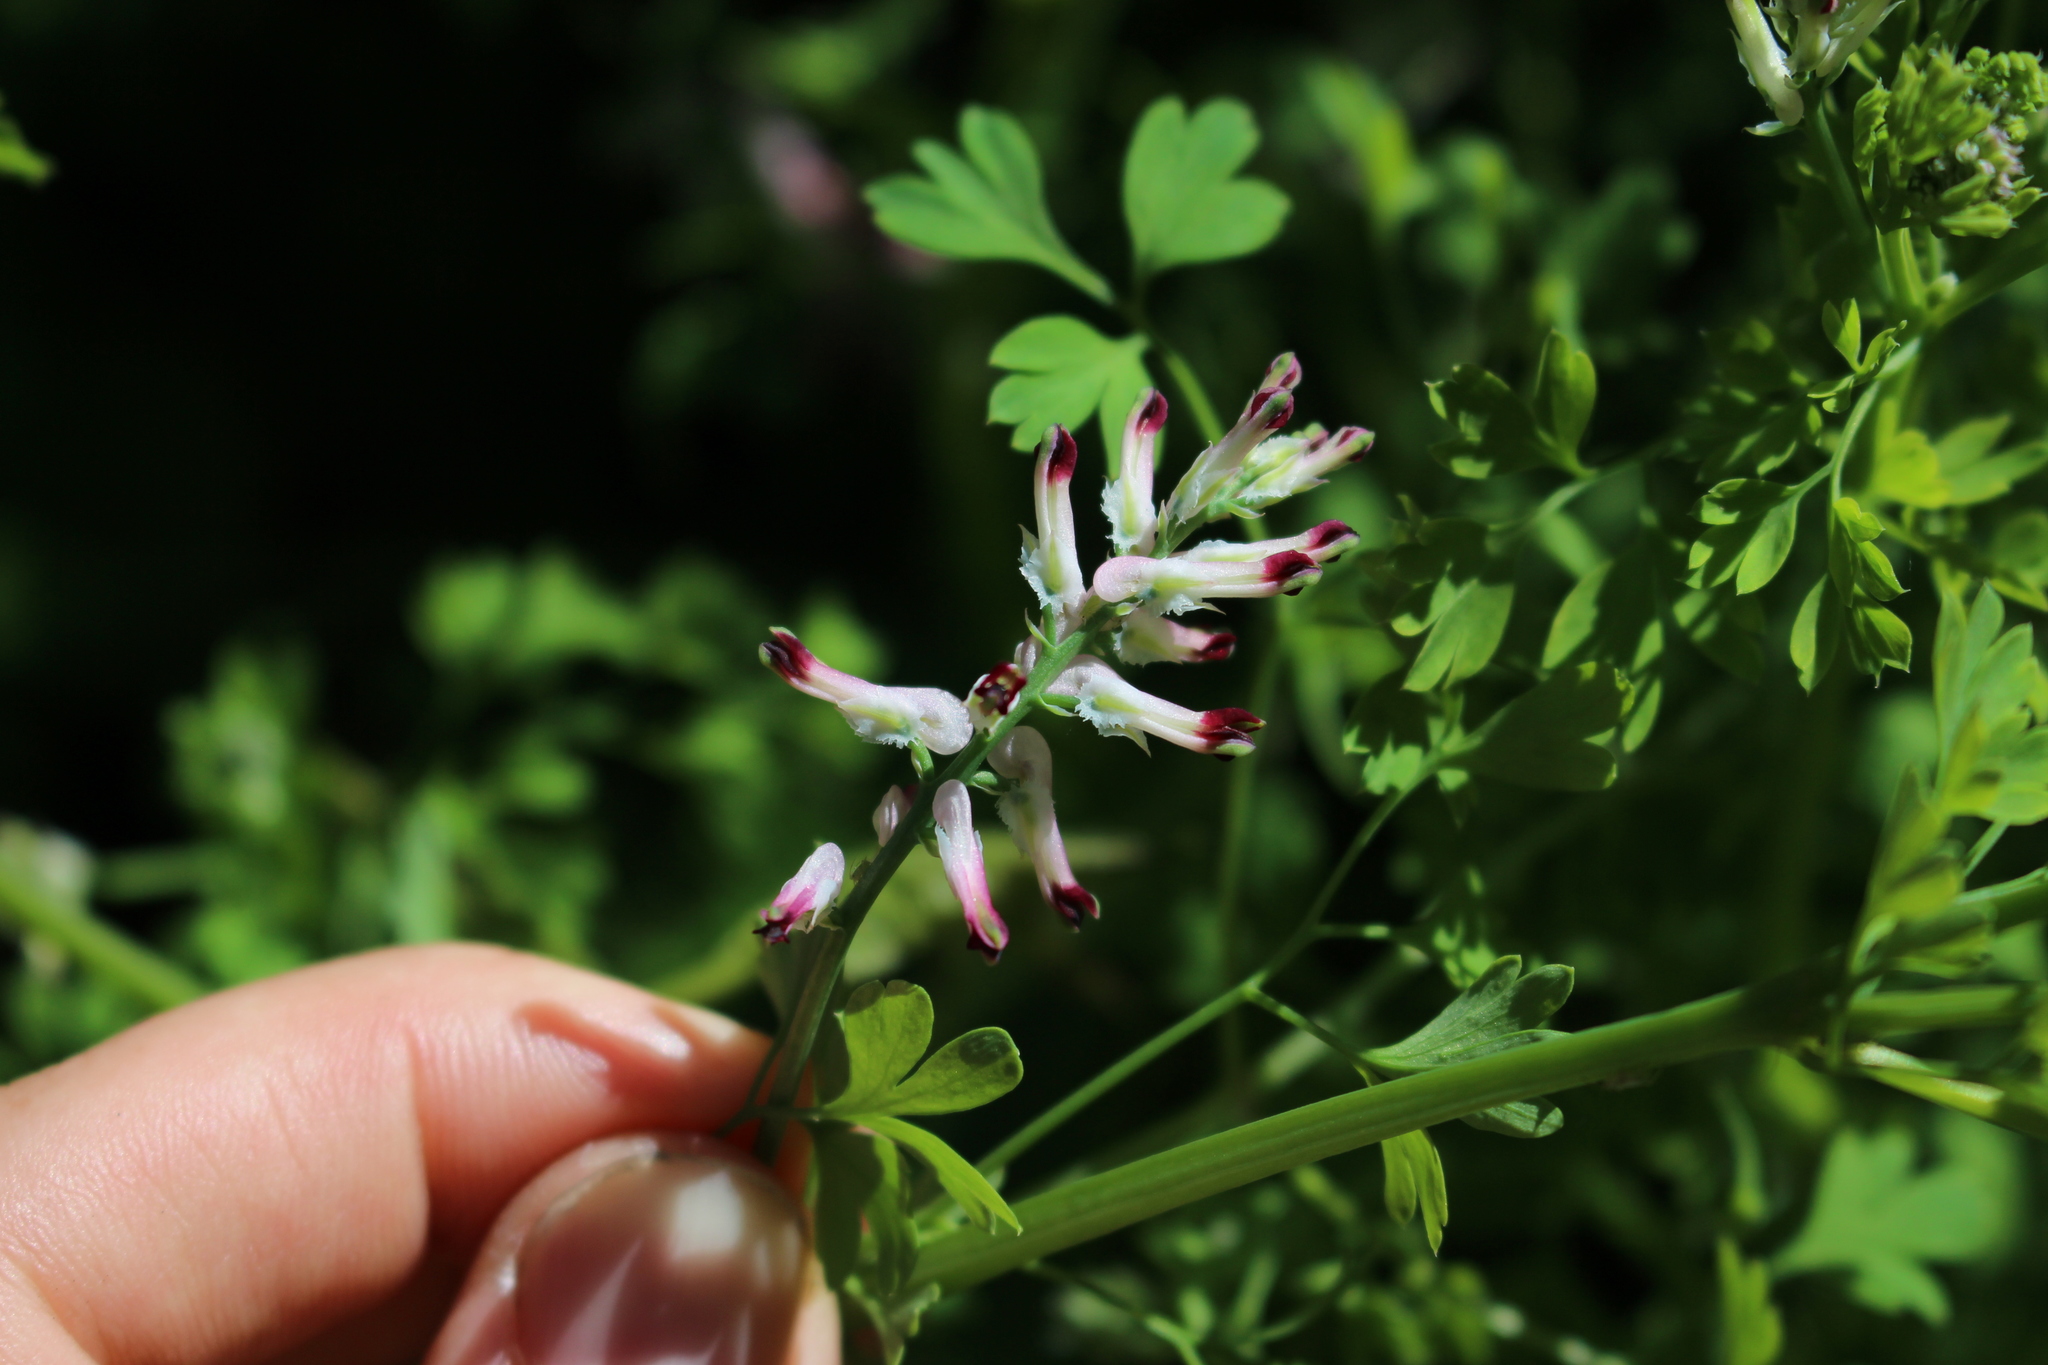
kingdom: Plantae
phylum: Tracheophyta
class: Magnoliopsida
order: Ranunculales
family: Papaveraceae
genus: Fumaria
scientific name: Fumaria capreolata
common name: White ramping-fumitory
